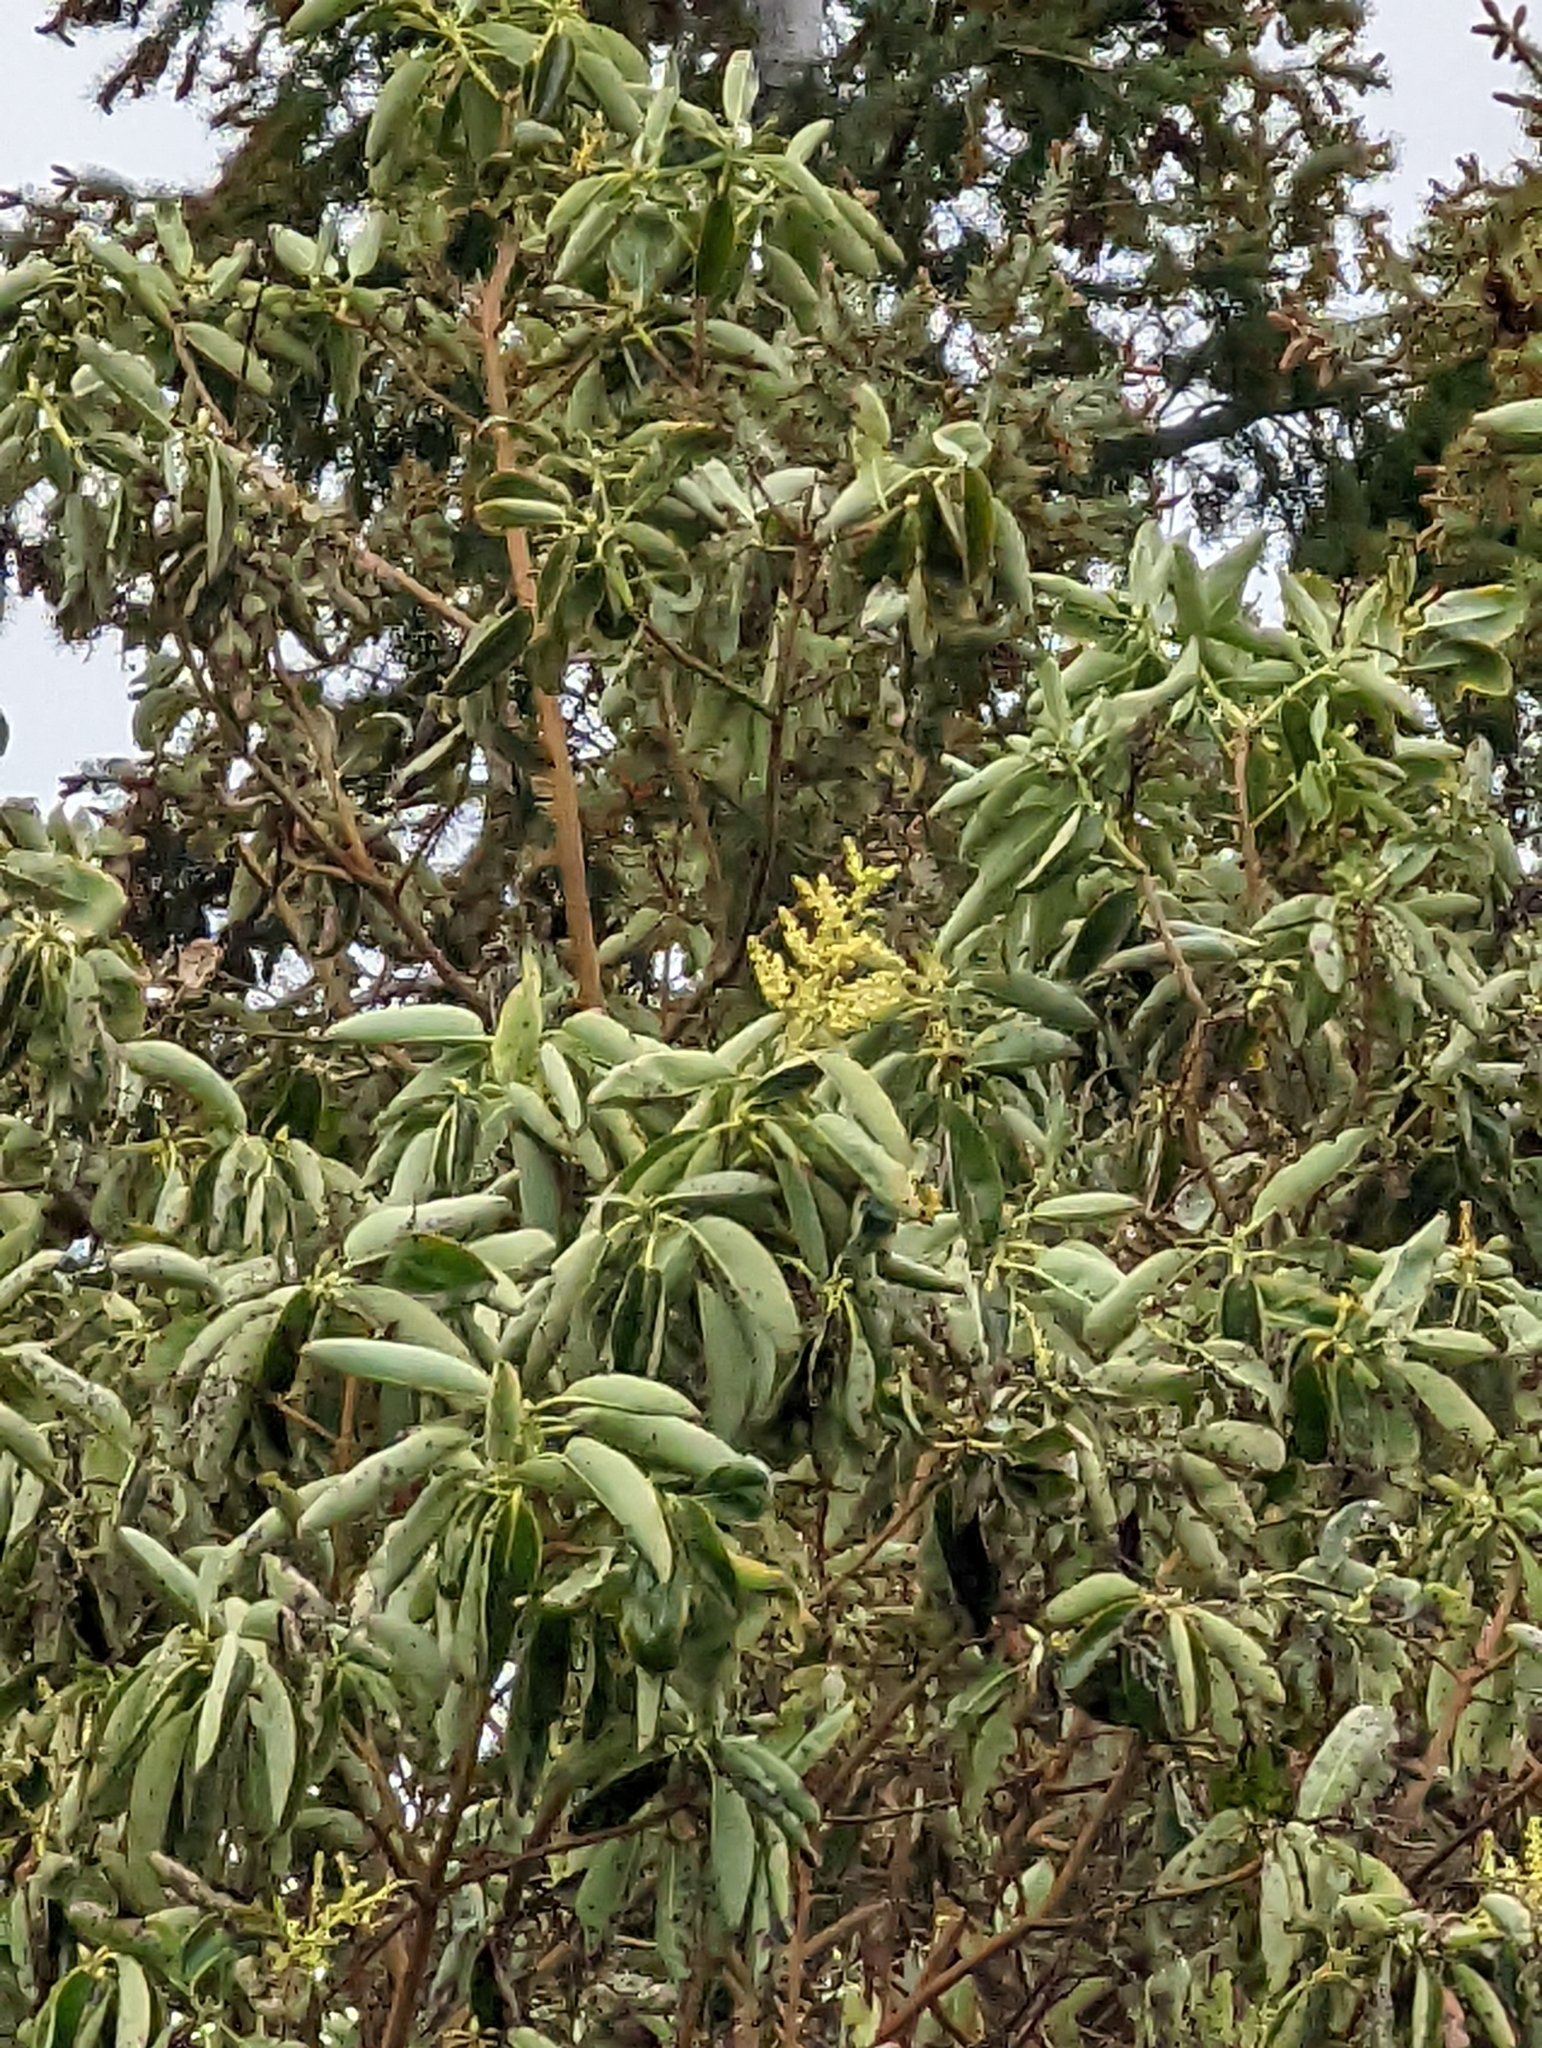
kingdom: Plantae
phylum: Tracheophyta
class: Magnoliopsida
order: Ericales
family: Ericaceae
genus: Arbutus
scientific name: Arbutus menziesii
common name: Pacific madrone
